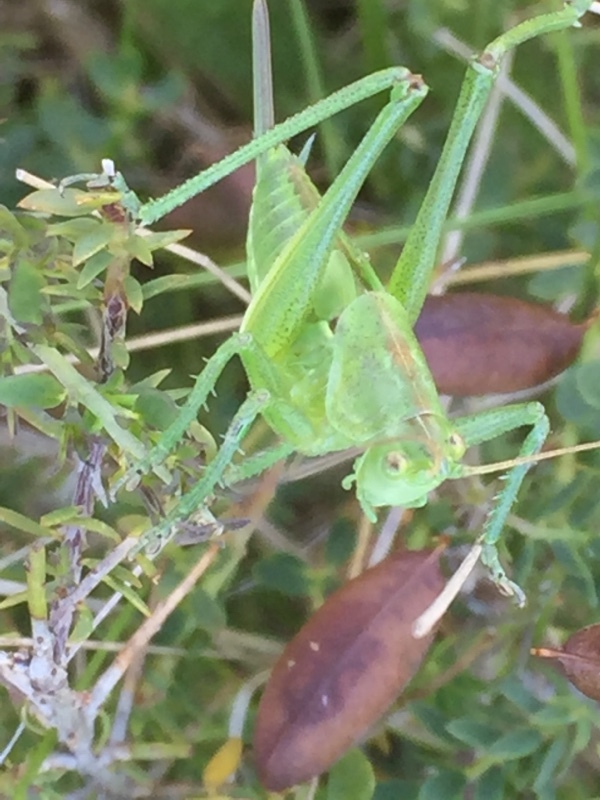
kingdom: Animalia
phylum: Arthropoda
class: Insecta
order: Orthoptera
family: Tettigoniidae
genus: Tettigonia
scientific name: Tettigonia viridissima
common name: Great green bush-cricket
